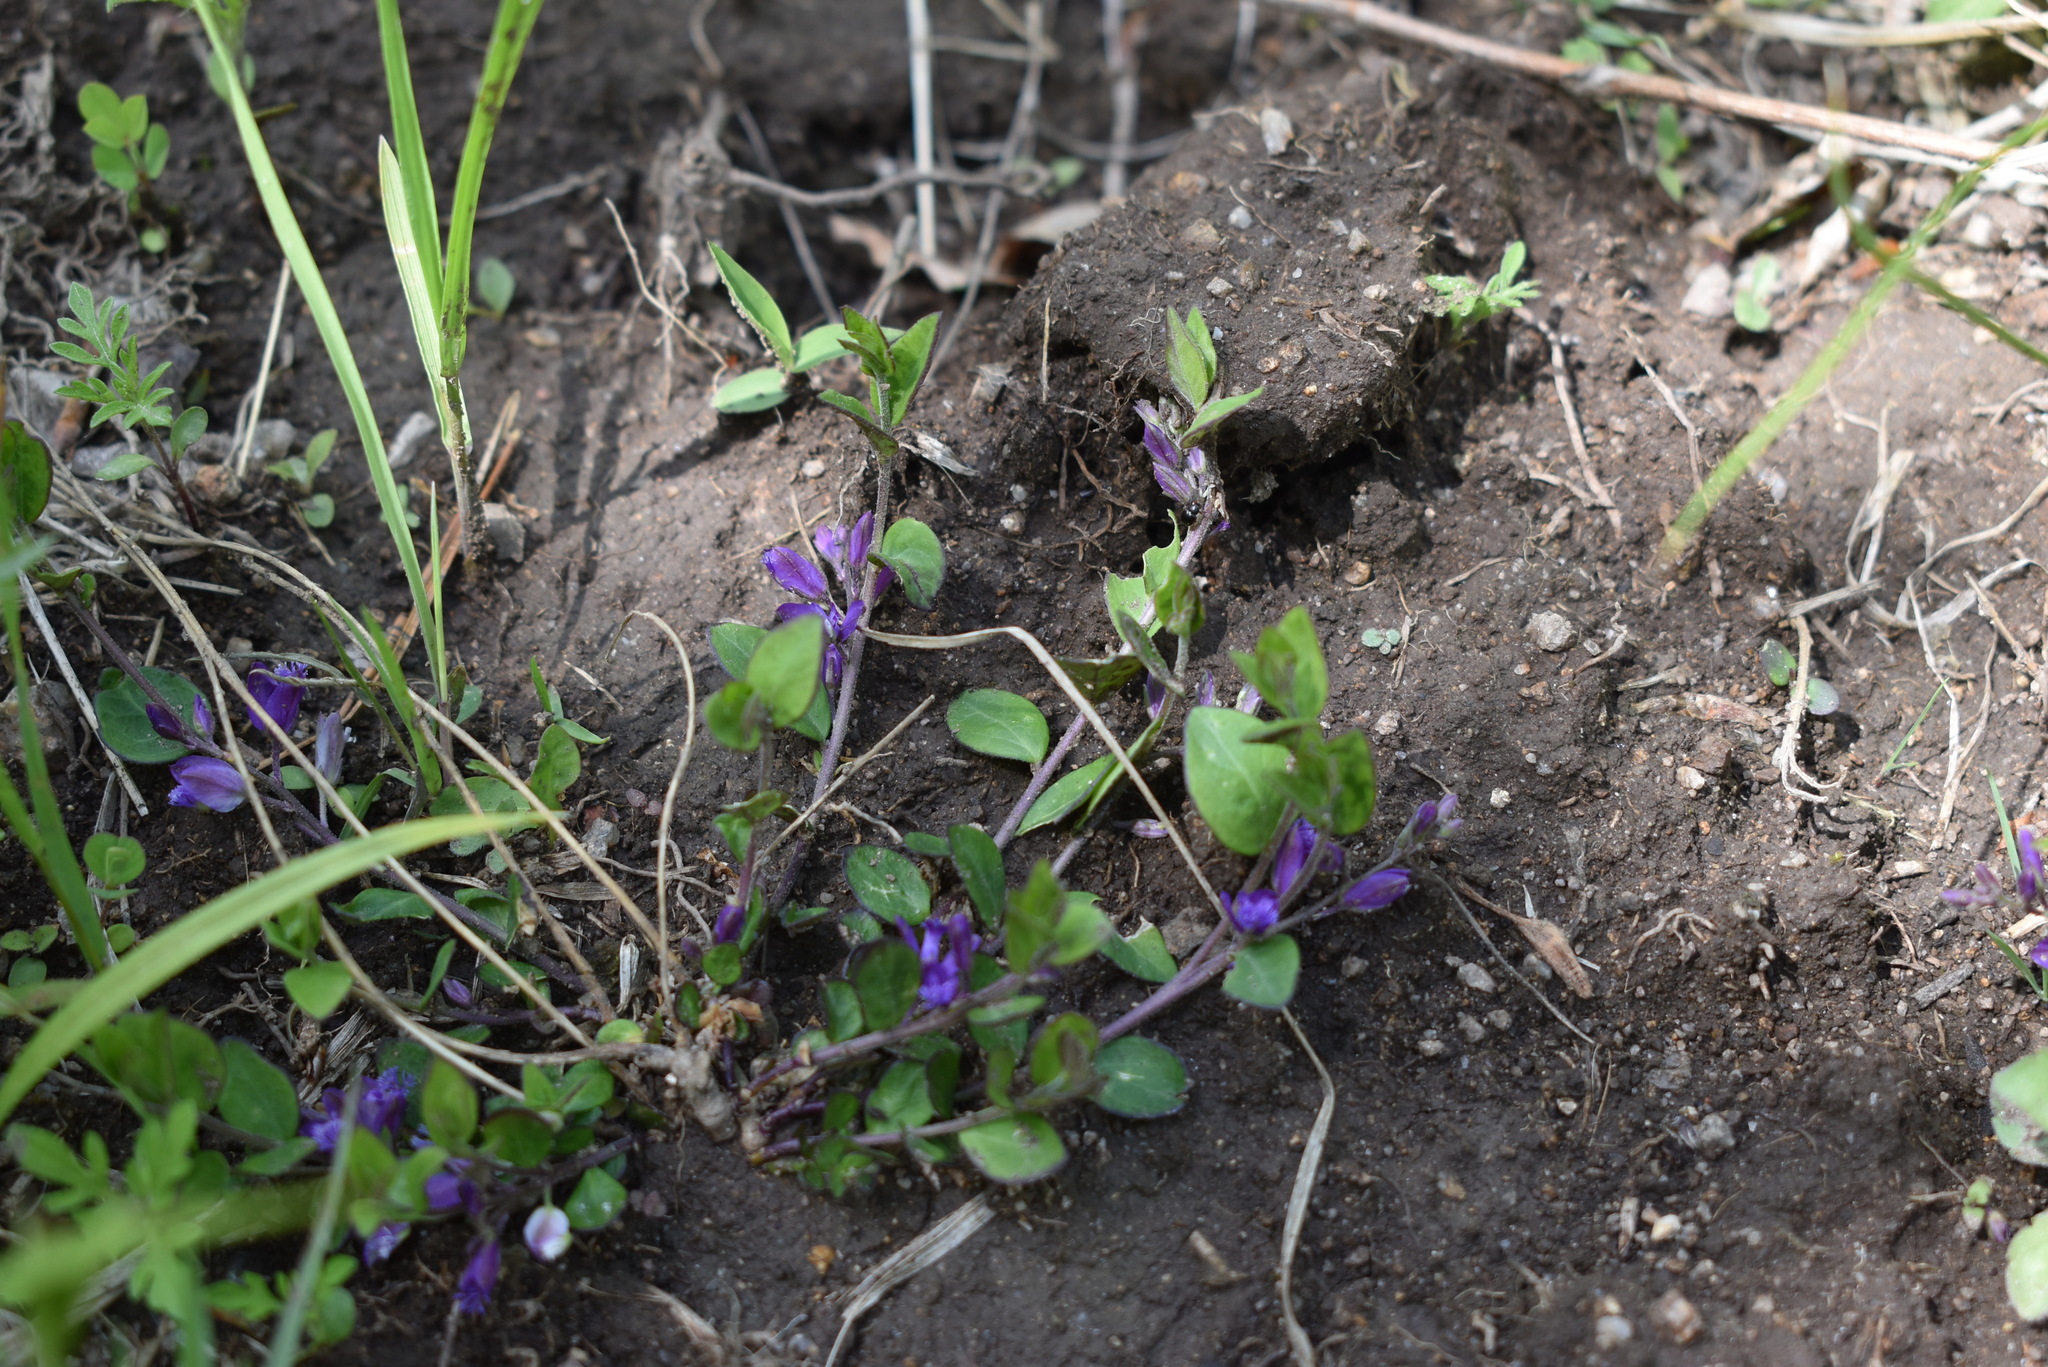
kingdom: Plantae
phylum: Tracheophyta
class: Magnoliopsida
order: Fabales
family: Polygalaceae
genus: Polygala
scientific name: Polygala japonica
